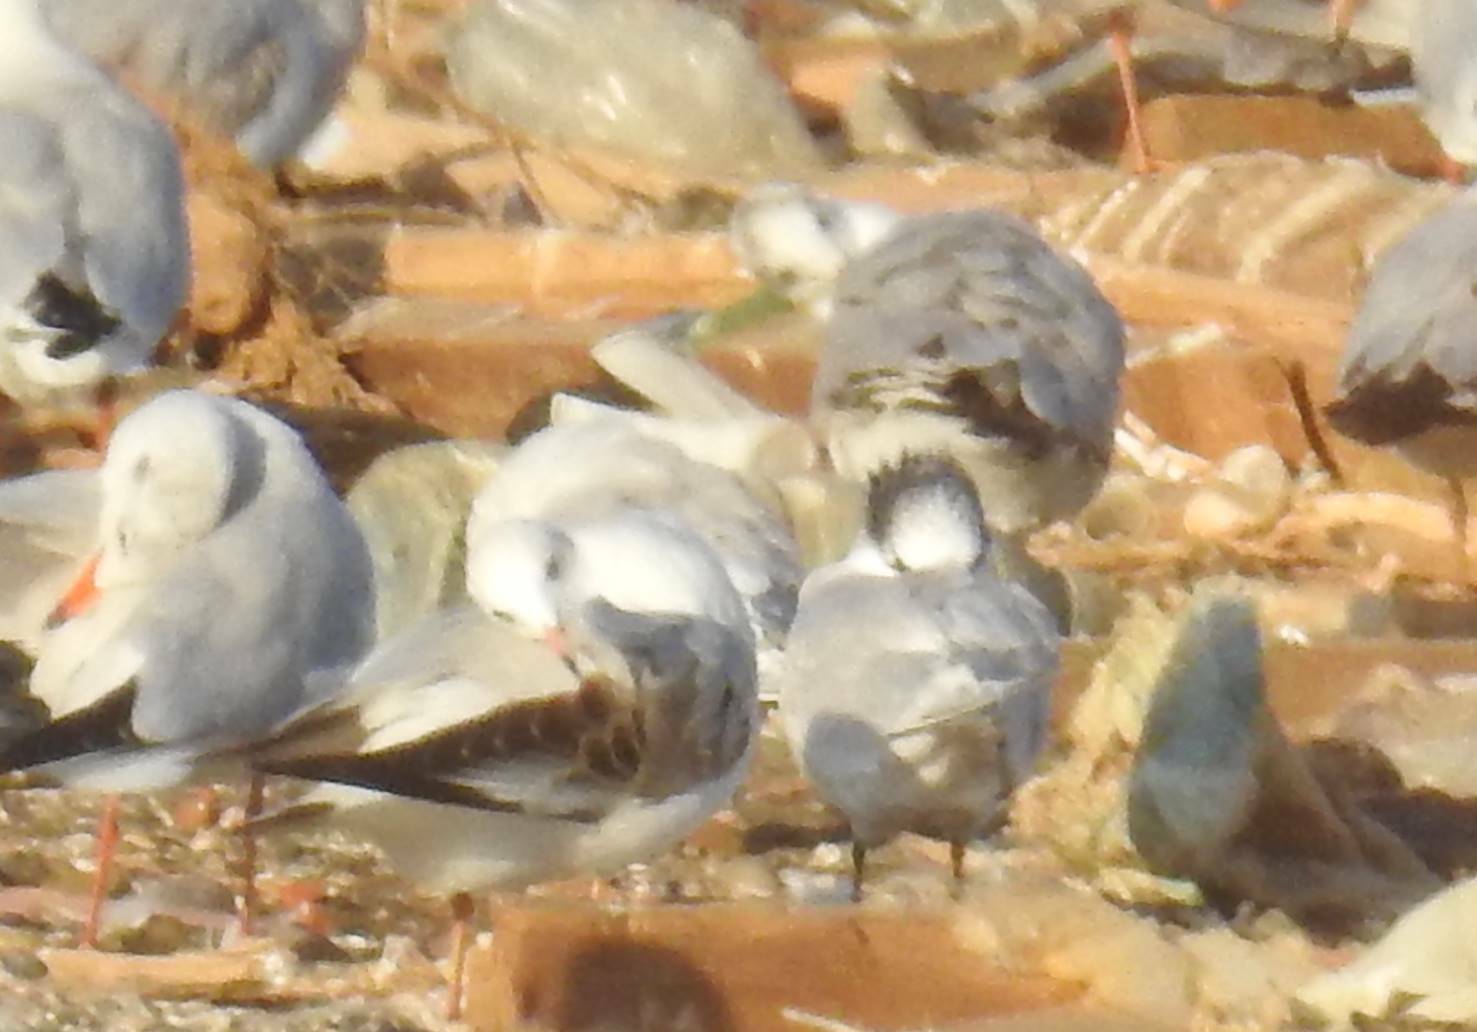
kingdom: Animalia
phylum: Chordata
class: Aves
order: Charadriiformes
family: Laridae
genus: Chroicocephalus
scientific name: Chroicocephalus ridibundus
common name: Black-headed gull
